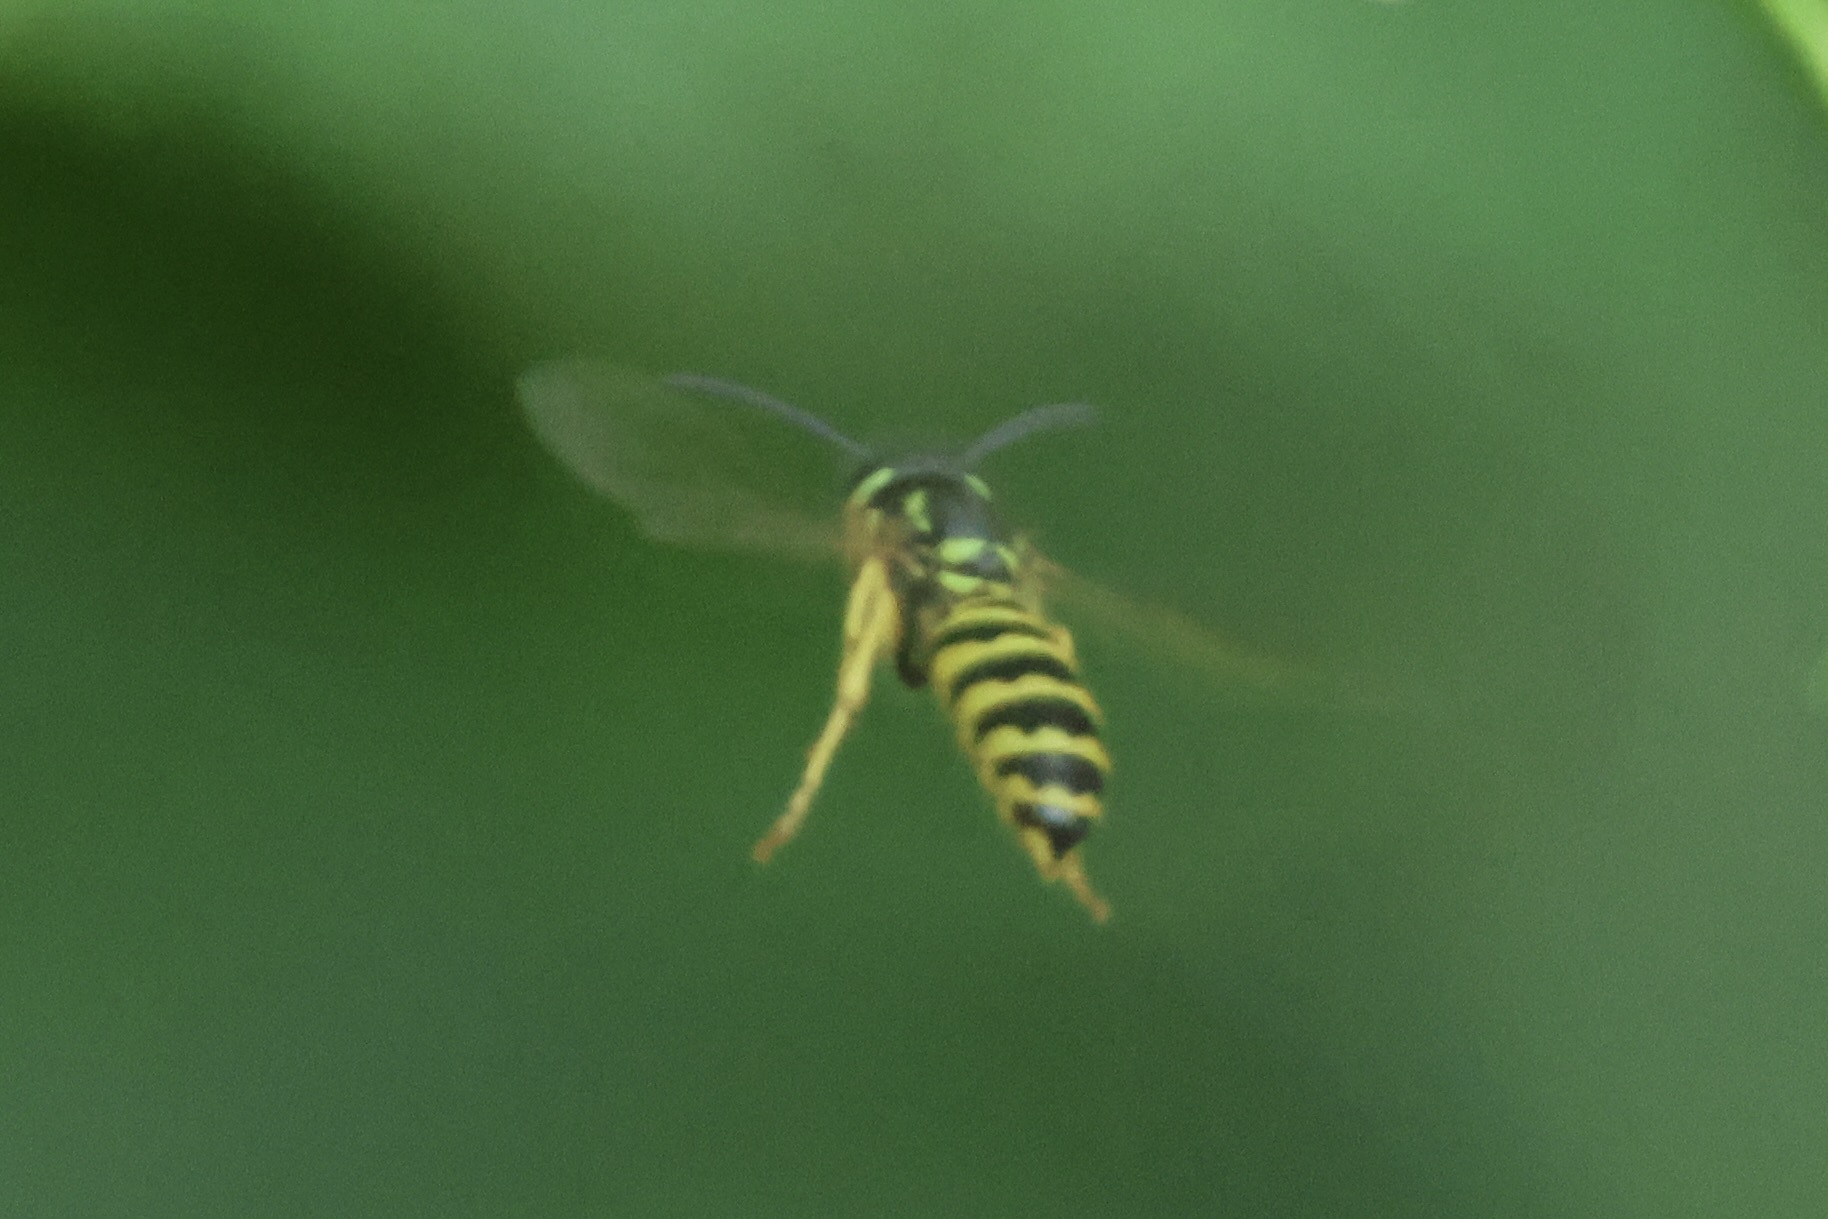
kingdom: Animalia
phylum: Arthropoda
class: Insecta
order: Hymenoptera
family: Vespidae
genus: Vespula
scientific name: Vespula maculifrons
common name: Eastern yellowjacket
